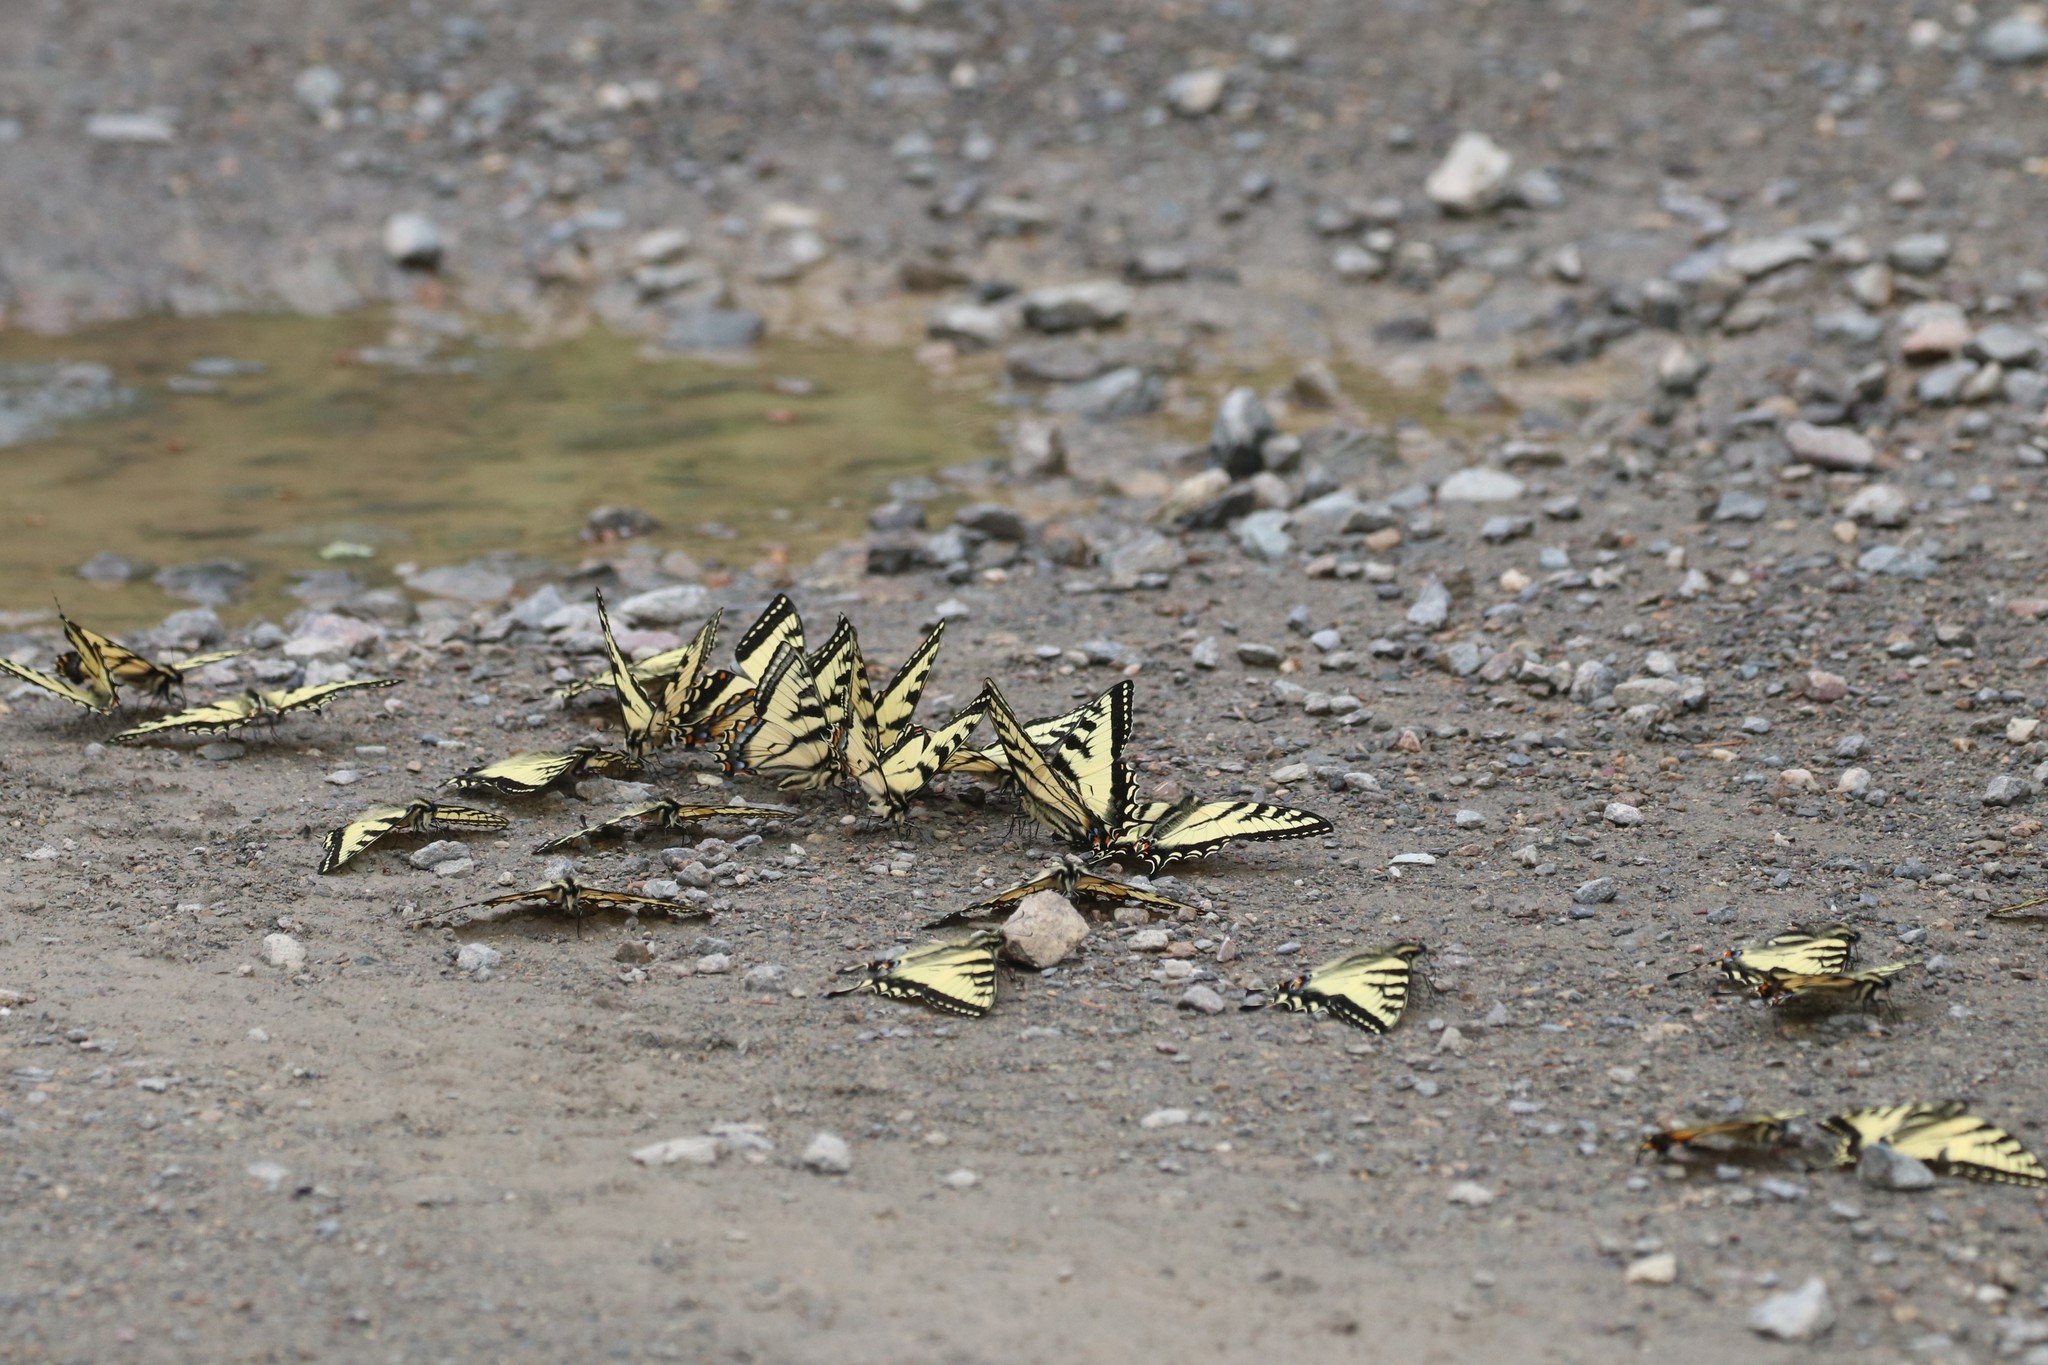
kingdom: Animalia
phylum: Arthropoda
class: Insecta
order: Lepidoptera
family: Papilionidae
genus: Papilio
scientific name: Papilio canadensis
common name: Canadian tiger swallowtail
